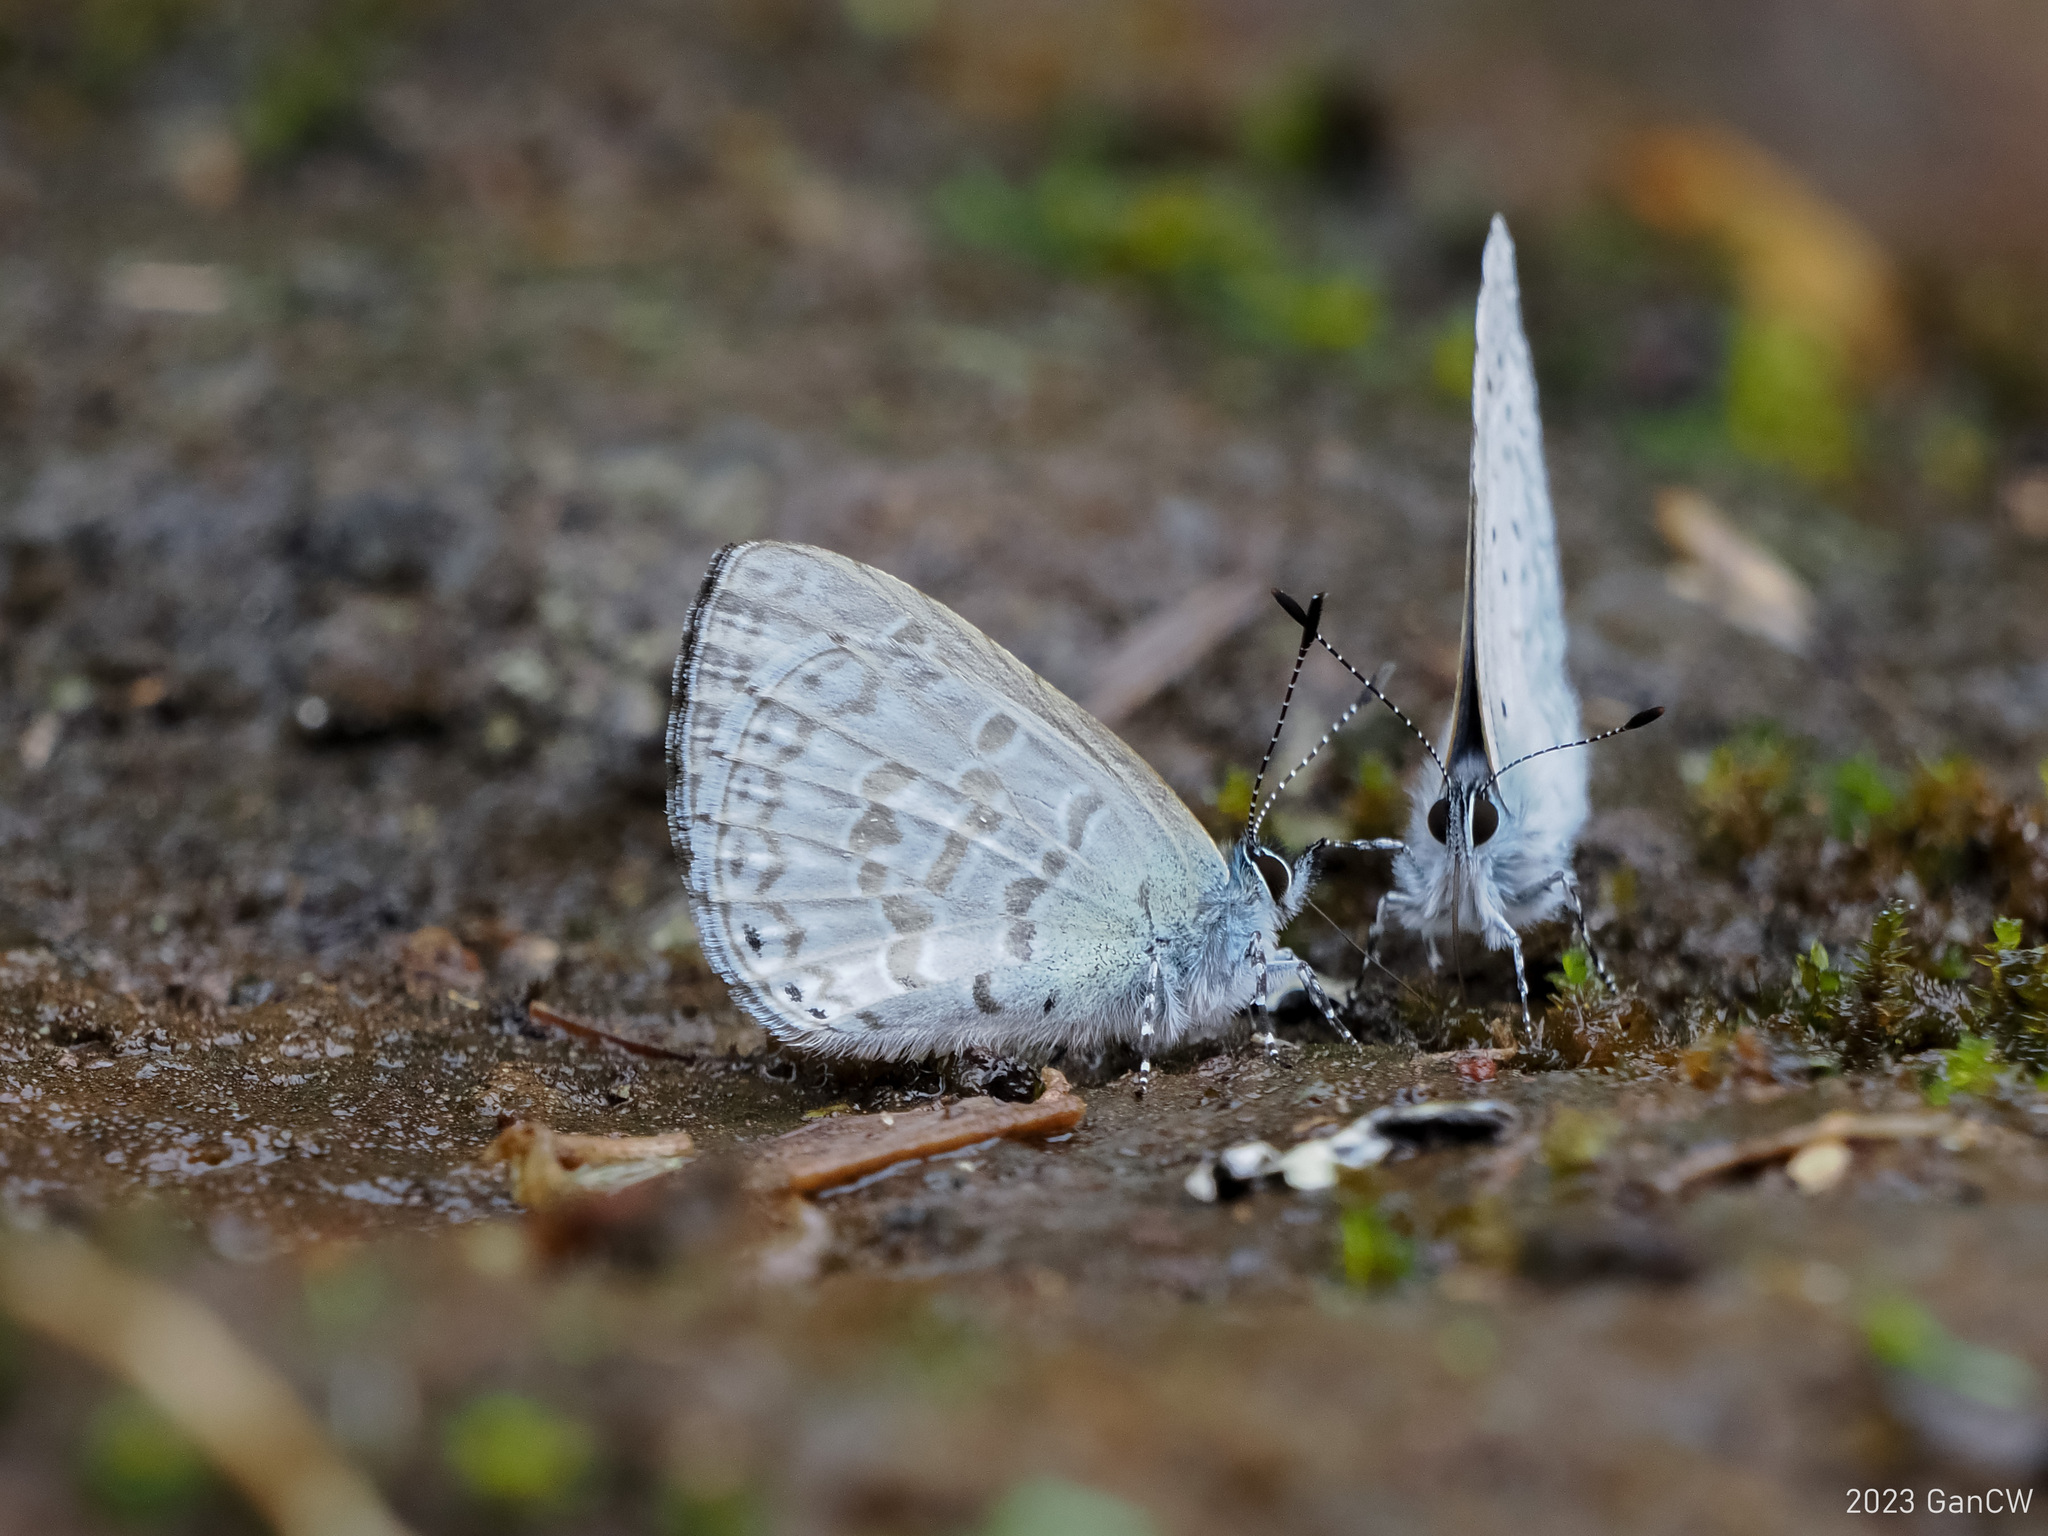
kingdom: Animalia
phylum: Arthropoda
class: Insecta
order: Lepidoptera
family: Lycaenidae
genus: Monodontides
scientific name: Monodontides
